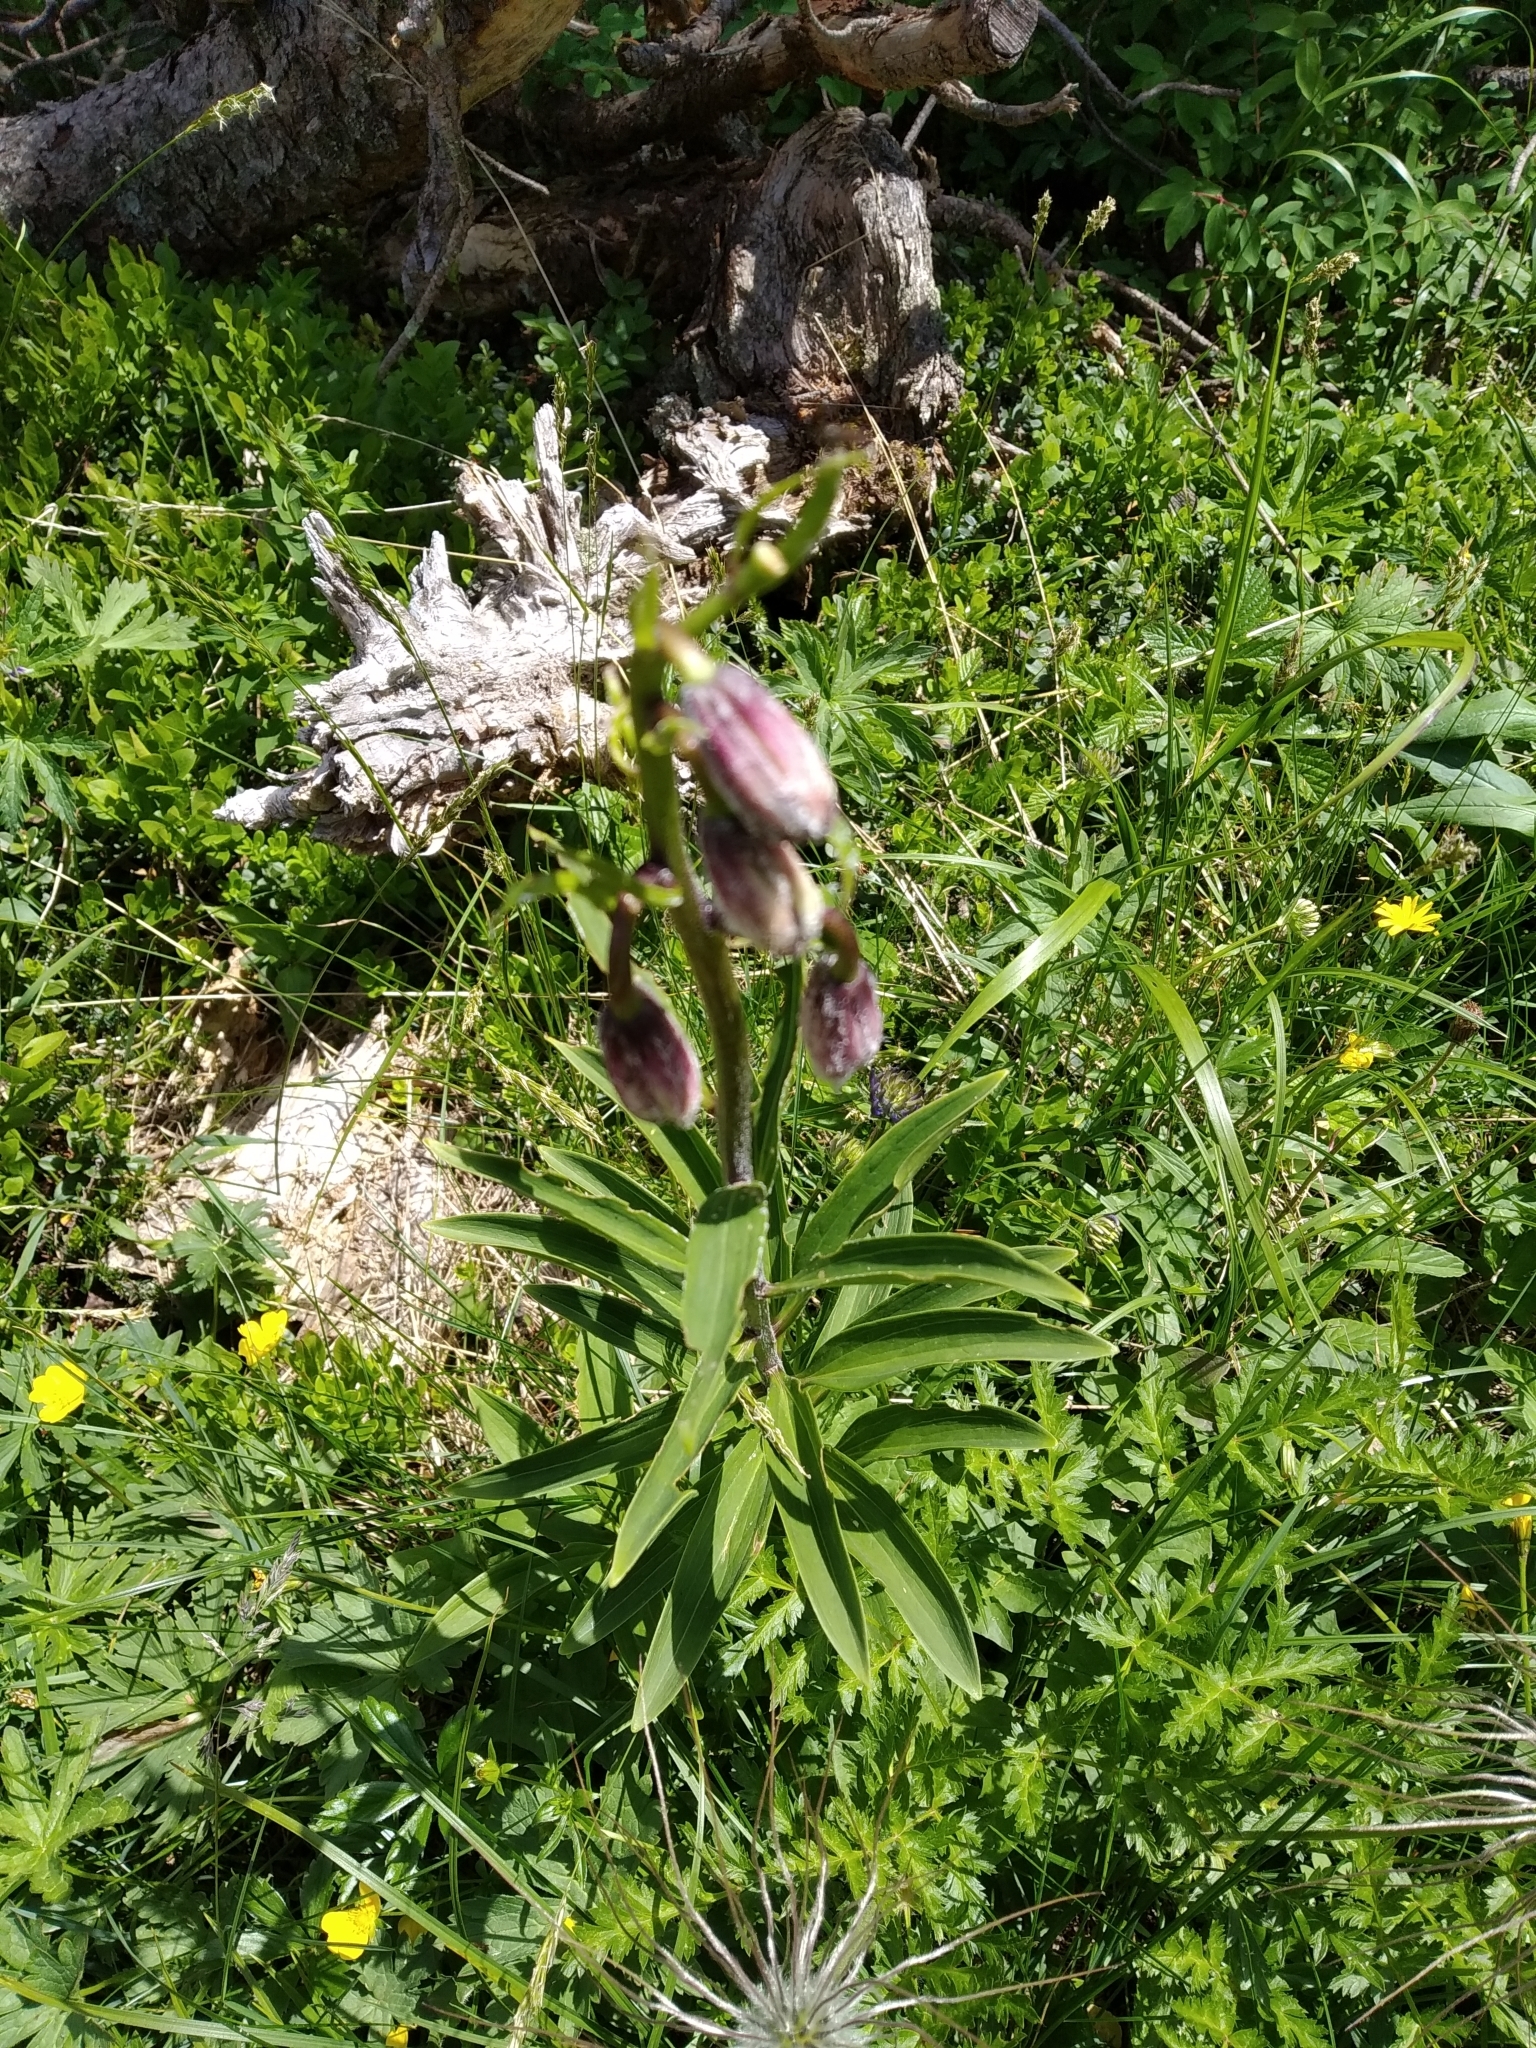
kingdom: Plantae
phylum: Tracheophyta
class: Liliopsida
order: Liliales
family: Liliaceae
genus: Lilium
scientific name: Lilium martagon
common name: Martagon lily
